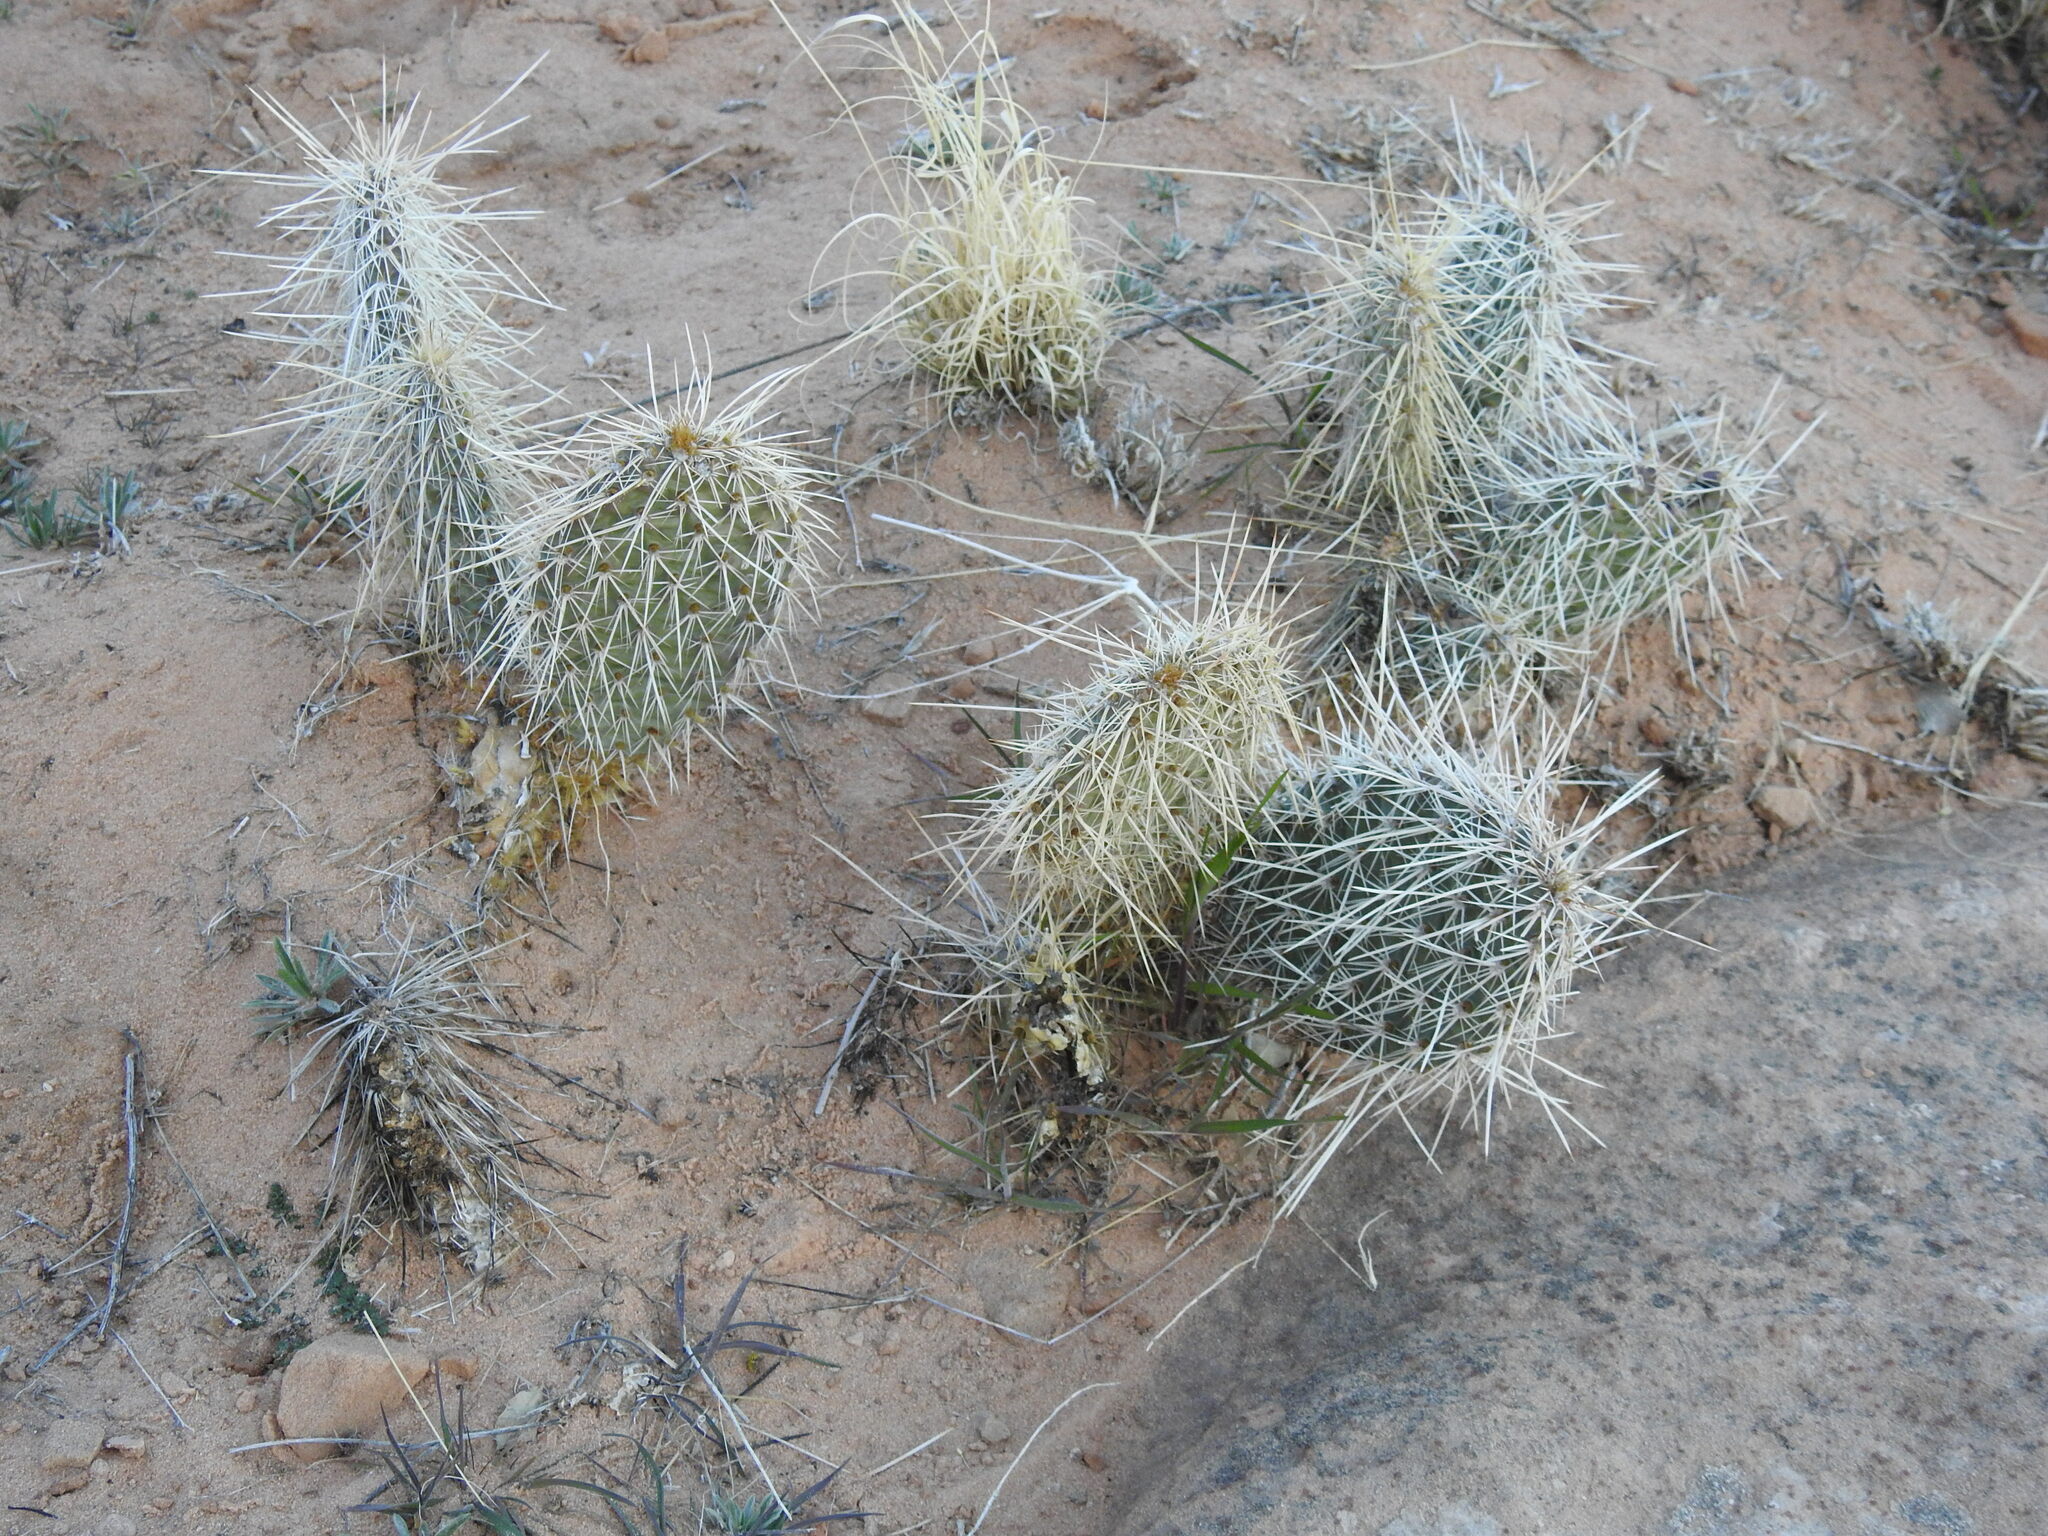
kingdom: Plantae
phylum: Tracheophyta
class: Magnoliopsida
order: Caryophyllales
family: Cactaceae
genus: Opuntia
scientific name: Opuntia polyacantha
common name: Plains prickly-pear
